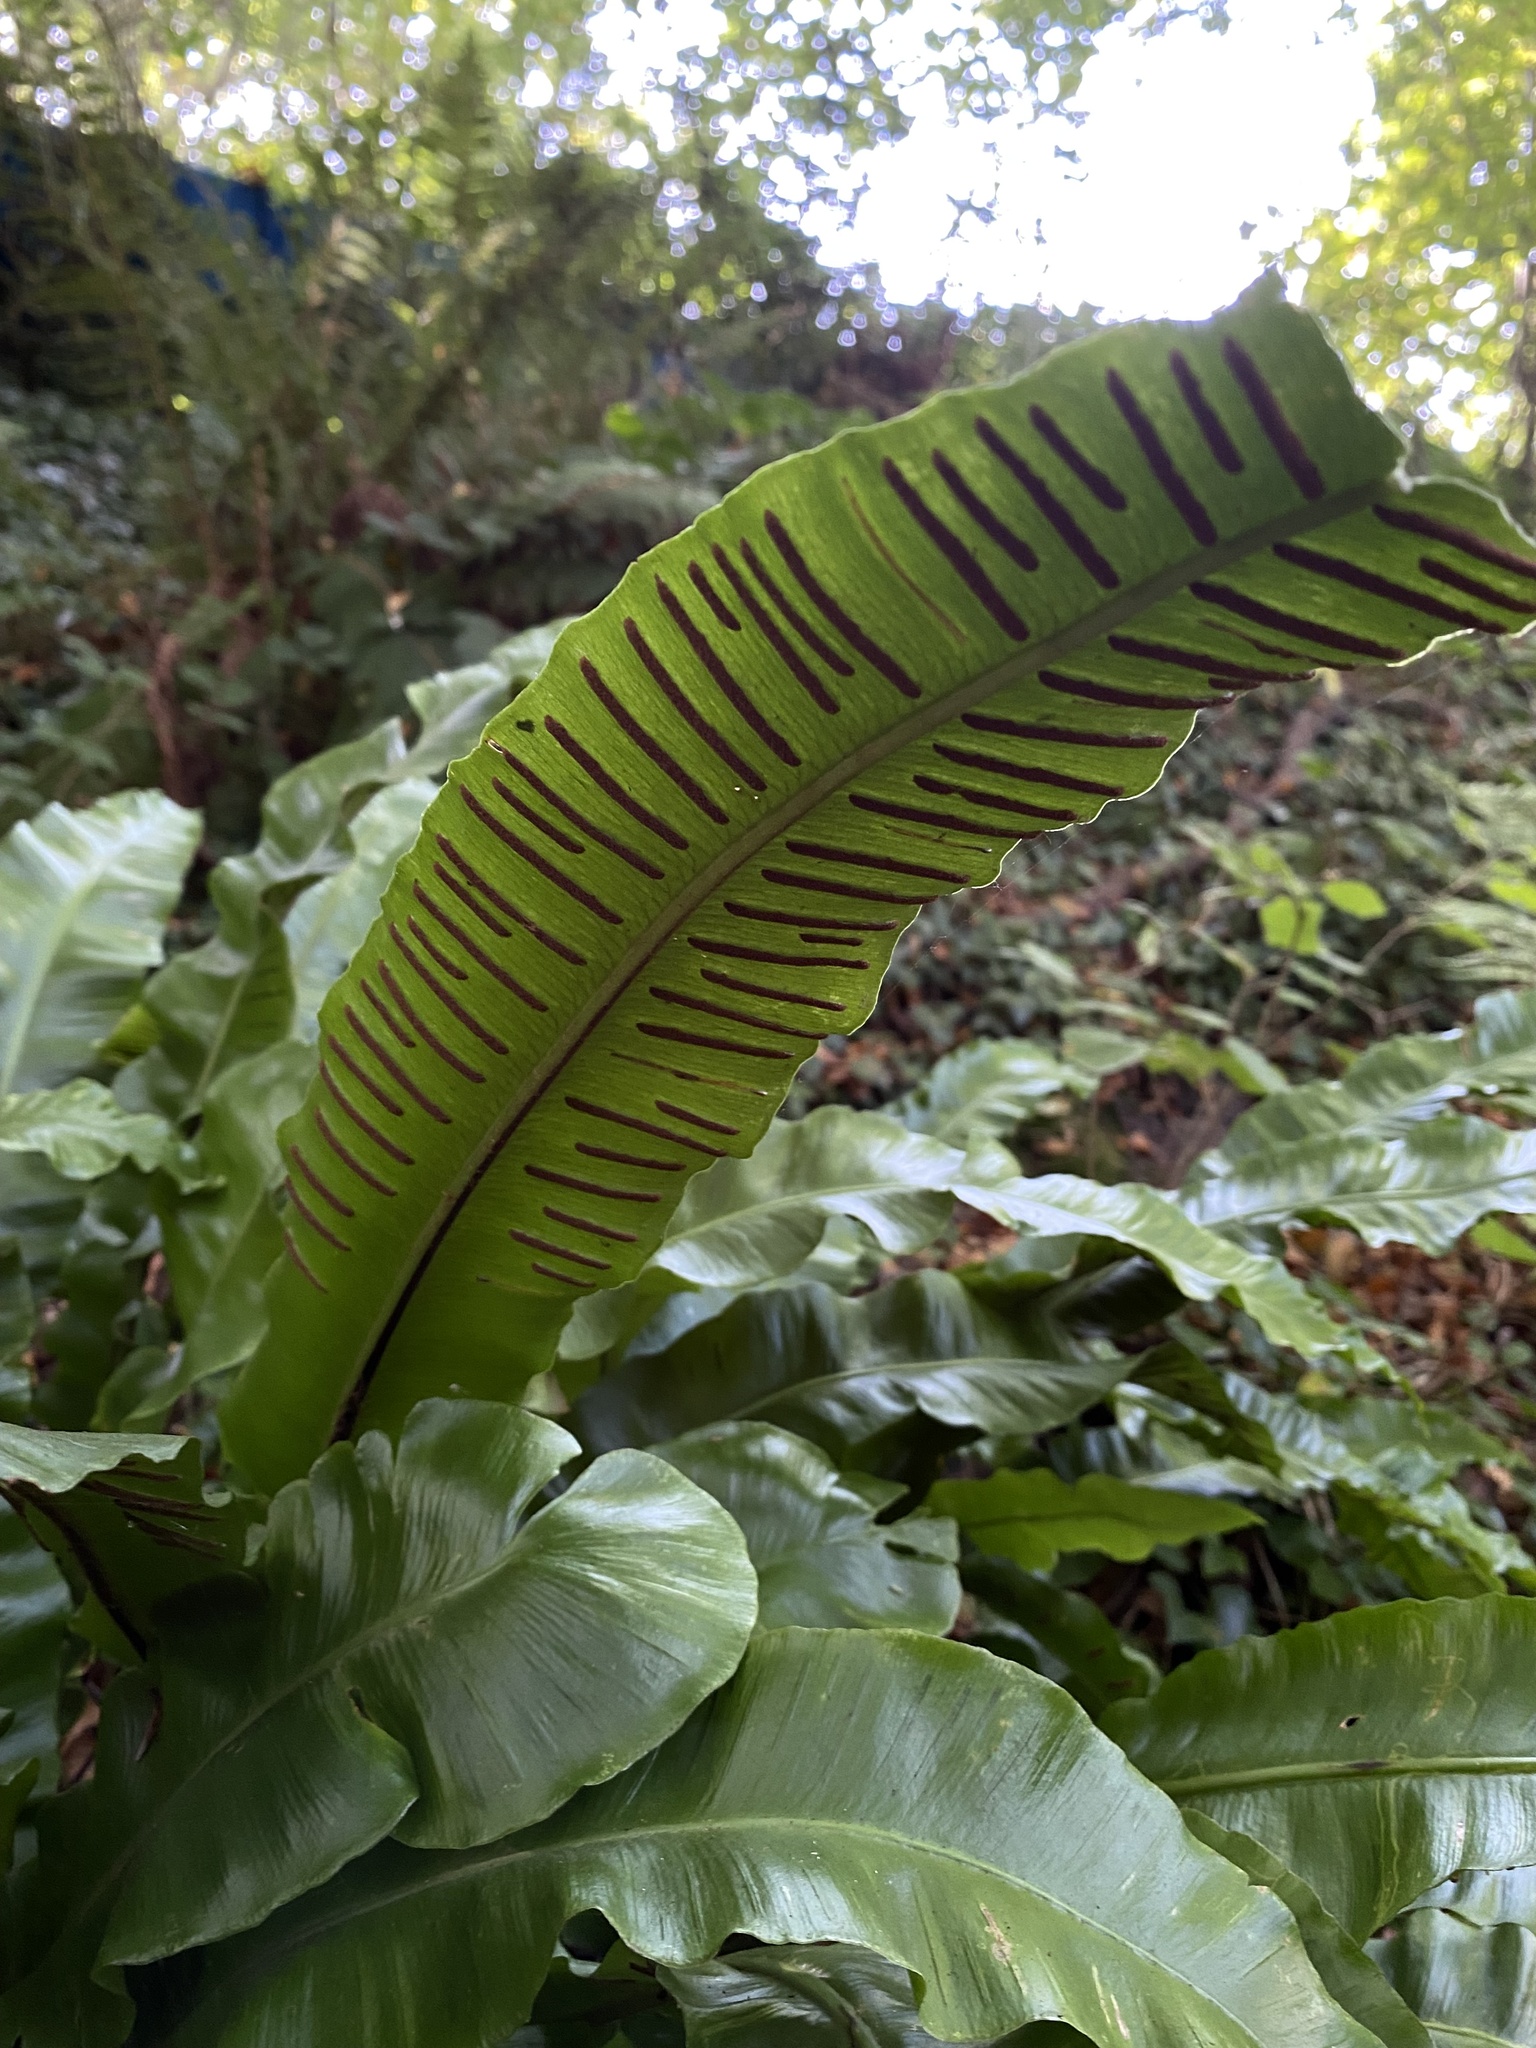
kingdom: Plantae
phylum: Tracheophyta
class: Polypodiopsida
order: Polypodiales
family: Aspleniaceae
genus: Asplenium
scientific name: Asplenium scolopendrium
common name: Hart's-tongue fern
